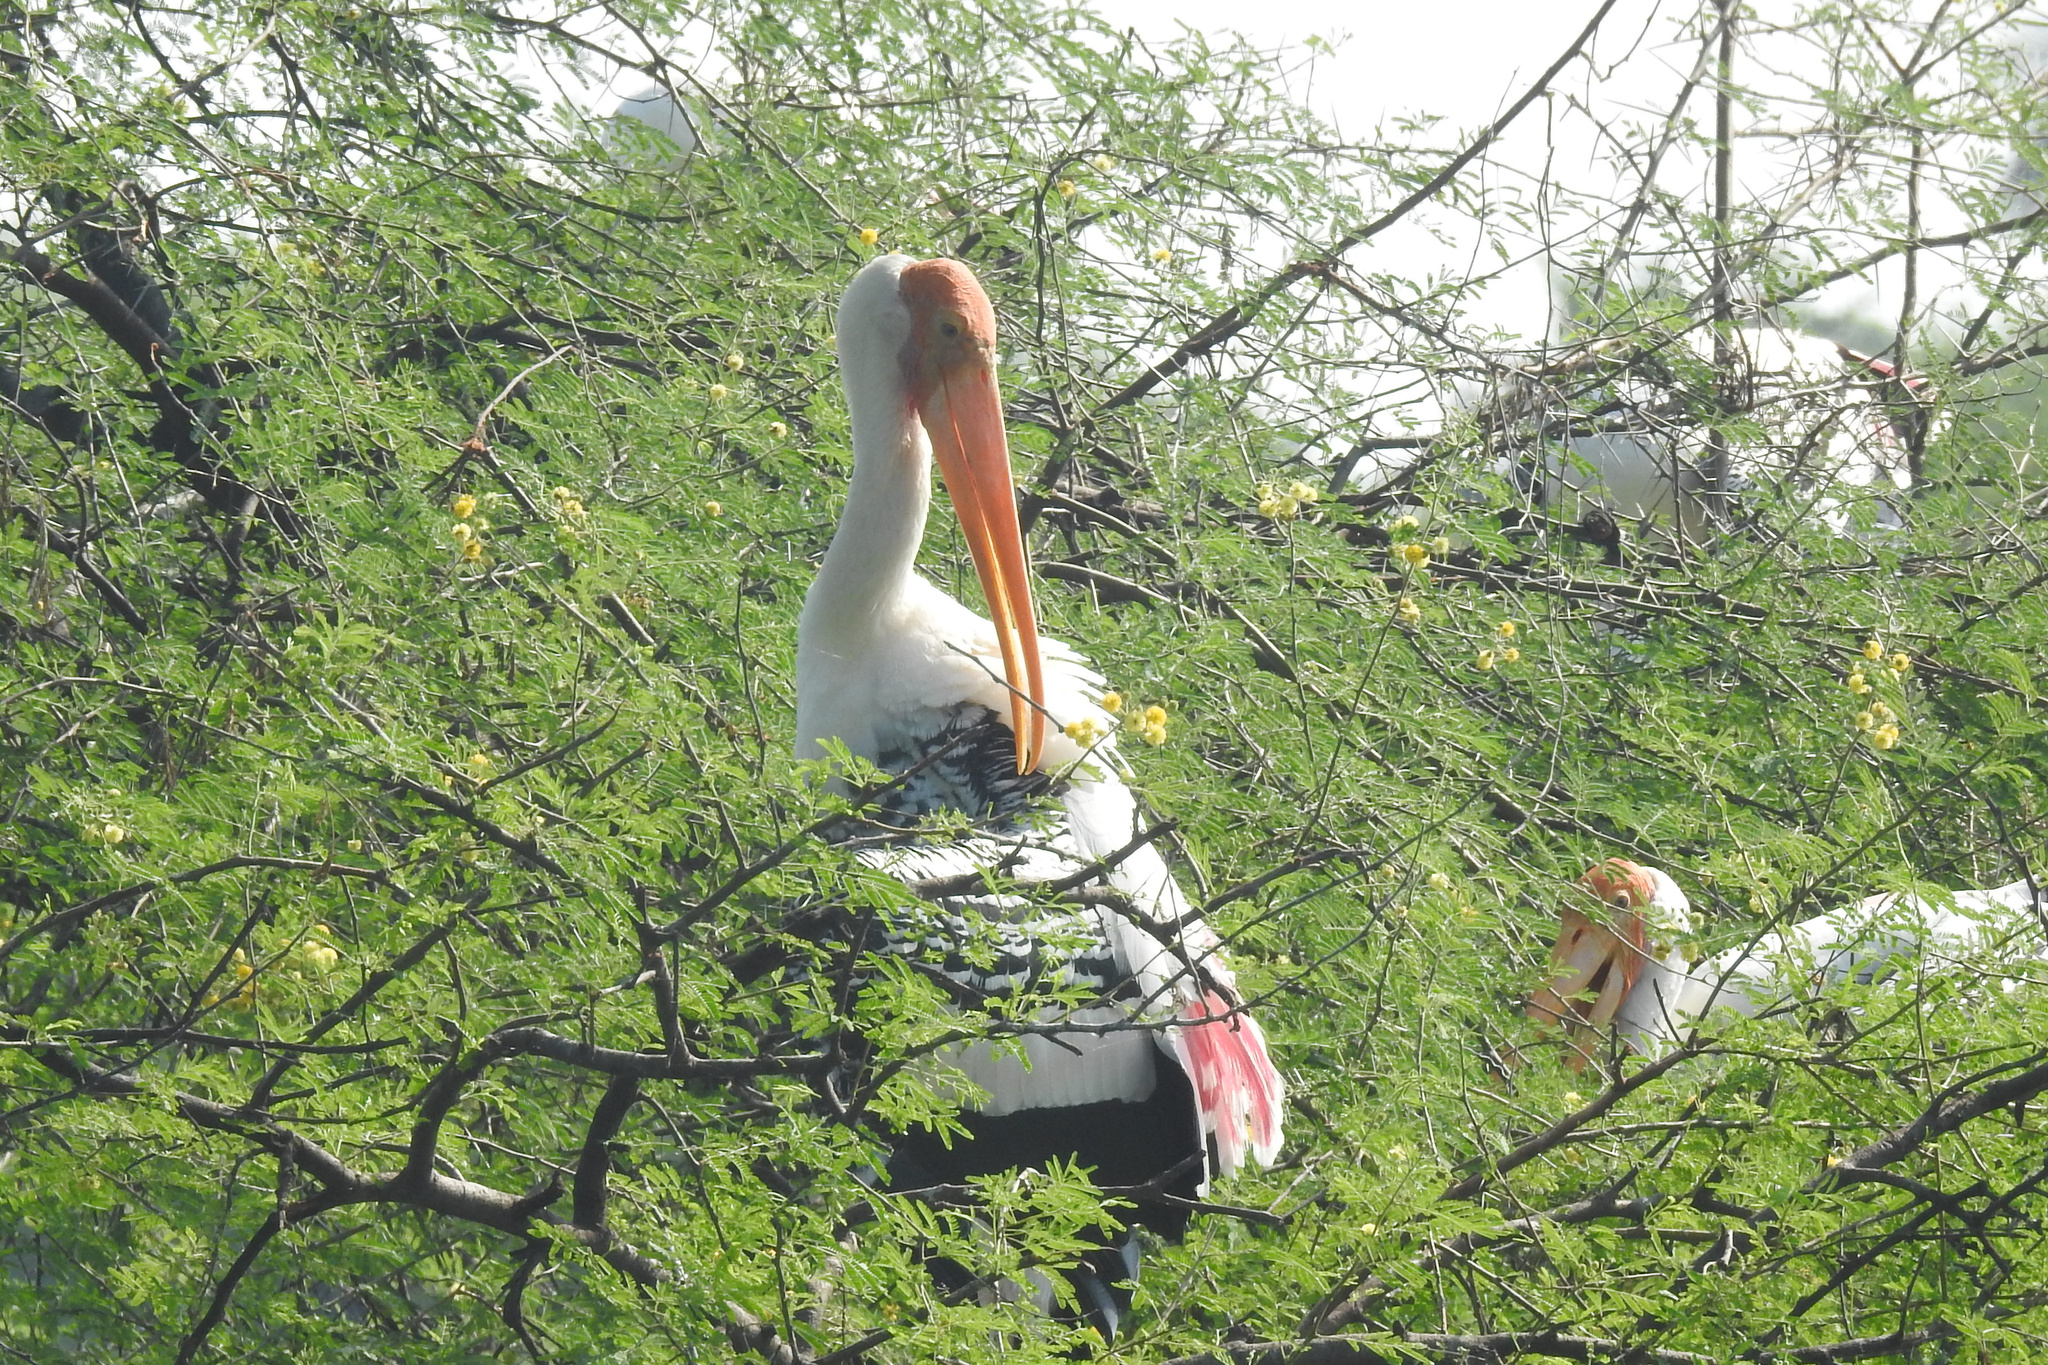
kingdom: Animalia
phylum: Chordata
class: Aves
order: Ciconiiformes
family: Ciconiidae
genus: Mycteria
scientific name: Mycteria leucocephala
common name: Painted stork
